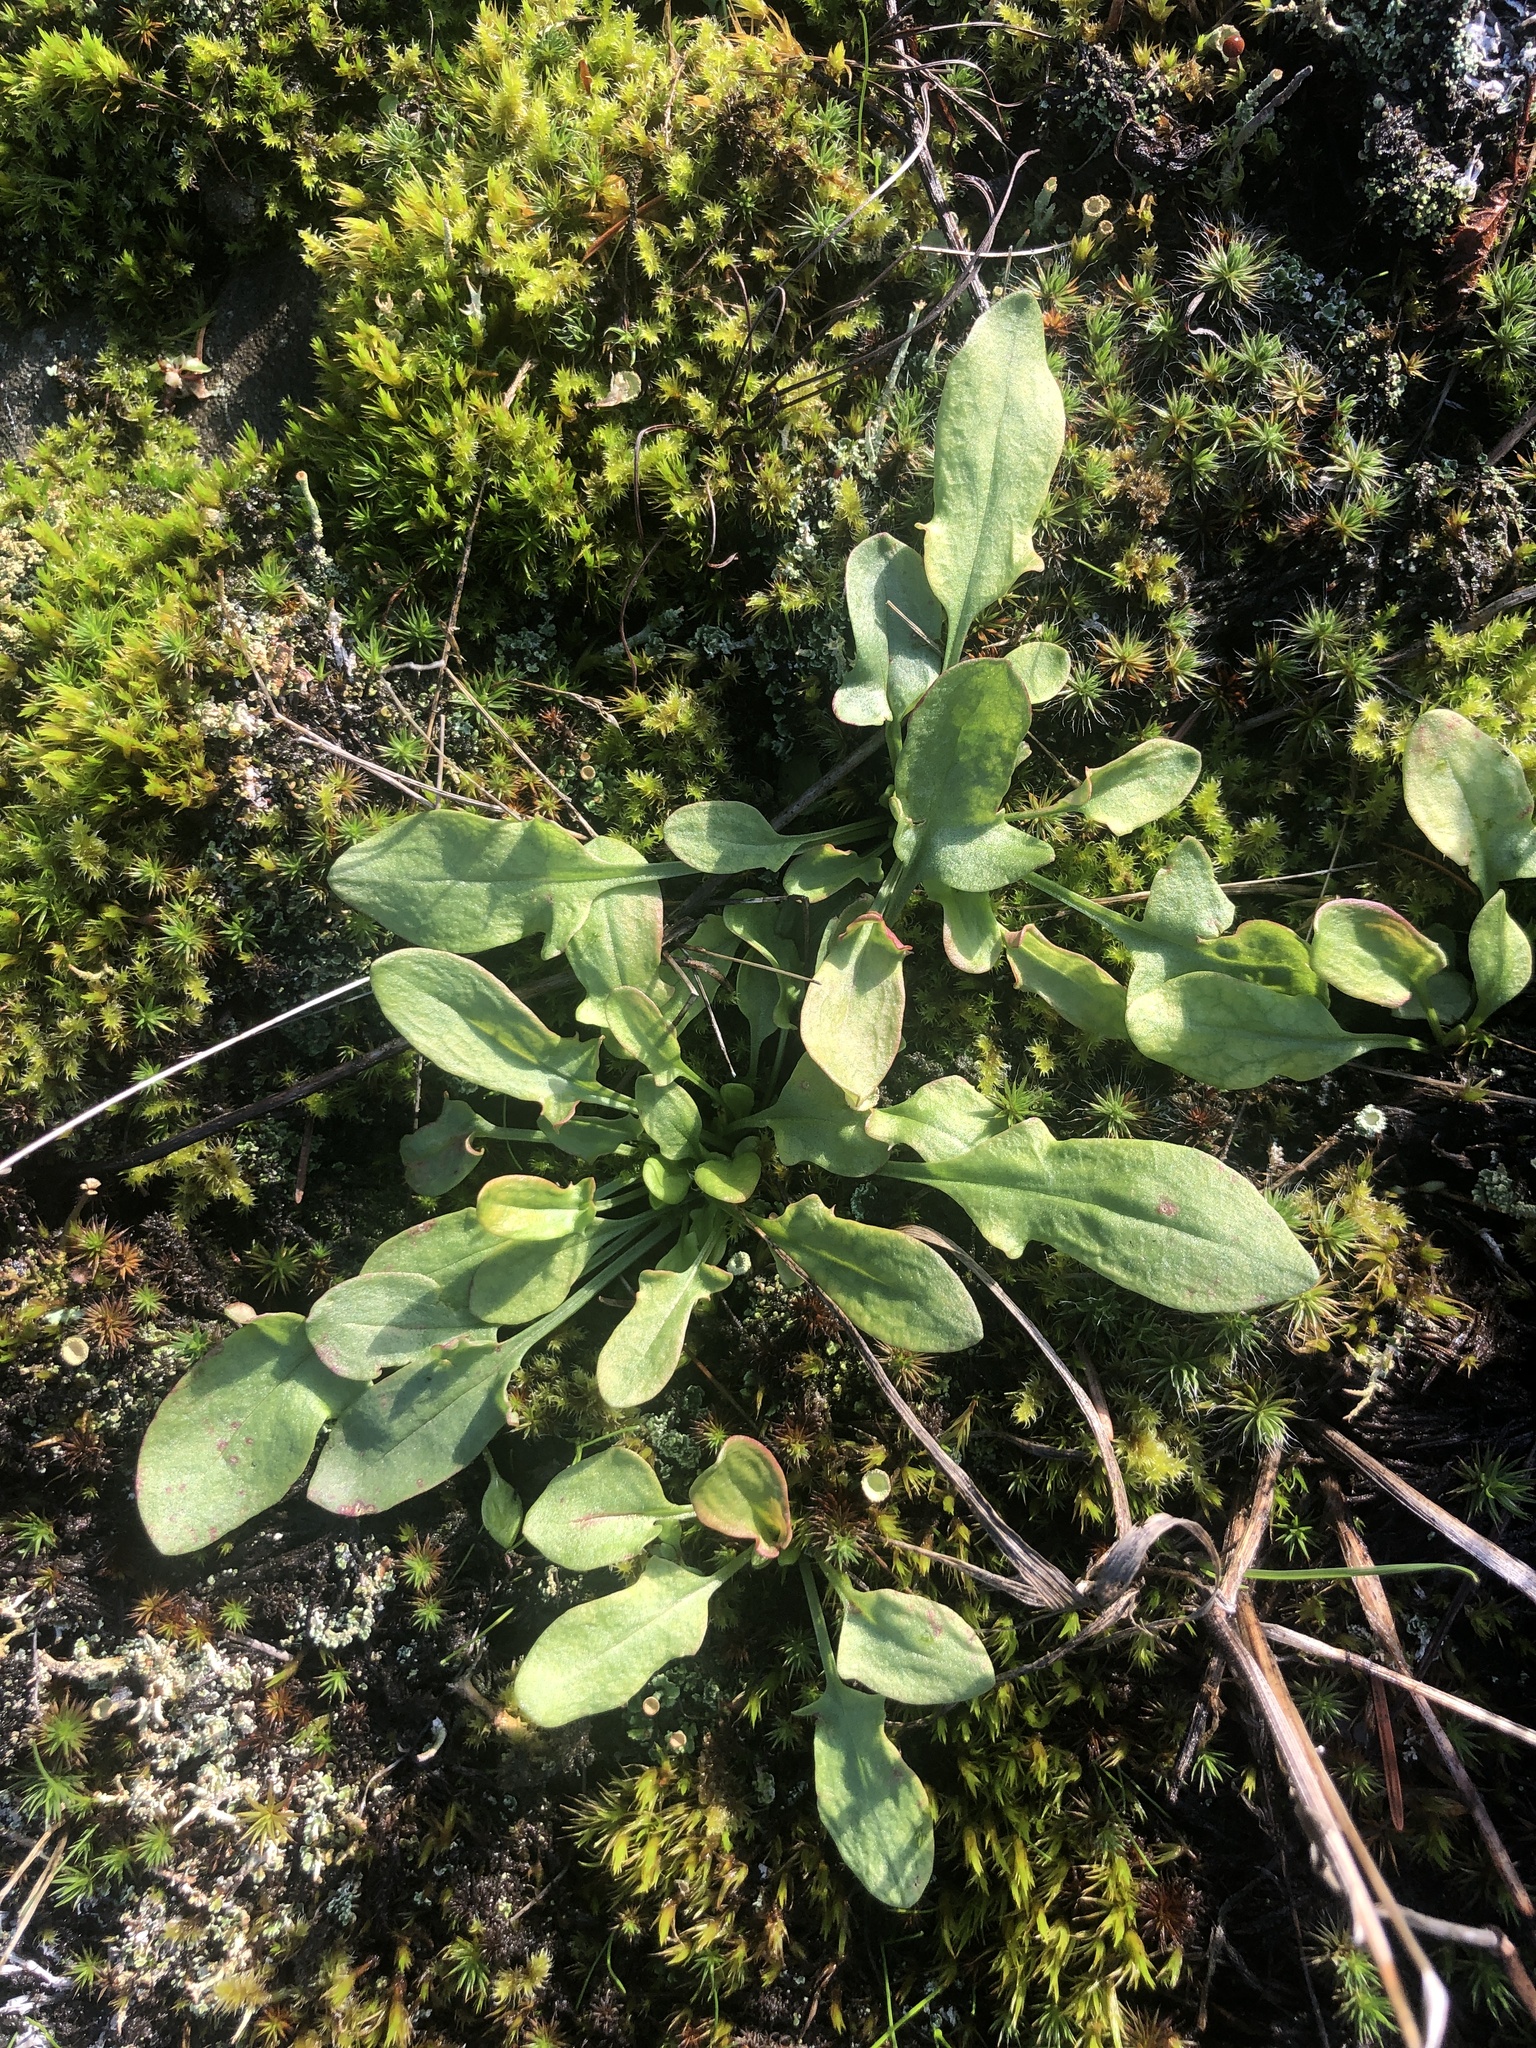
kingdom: Plantae
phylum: Tracheophyta
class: Magnoliopsida
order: Caryophyllales
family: Polygonaceae
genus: Rumex
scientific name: Rumex acetosella
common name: Common sheep sorrel
